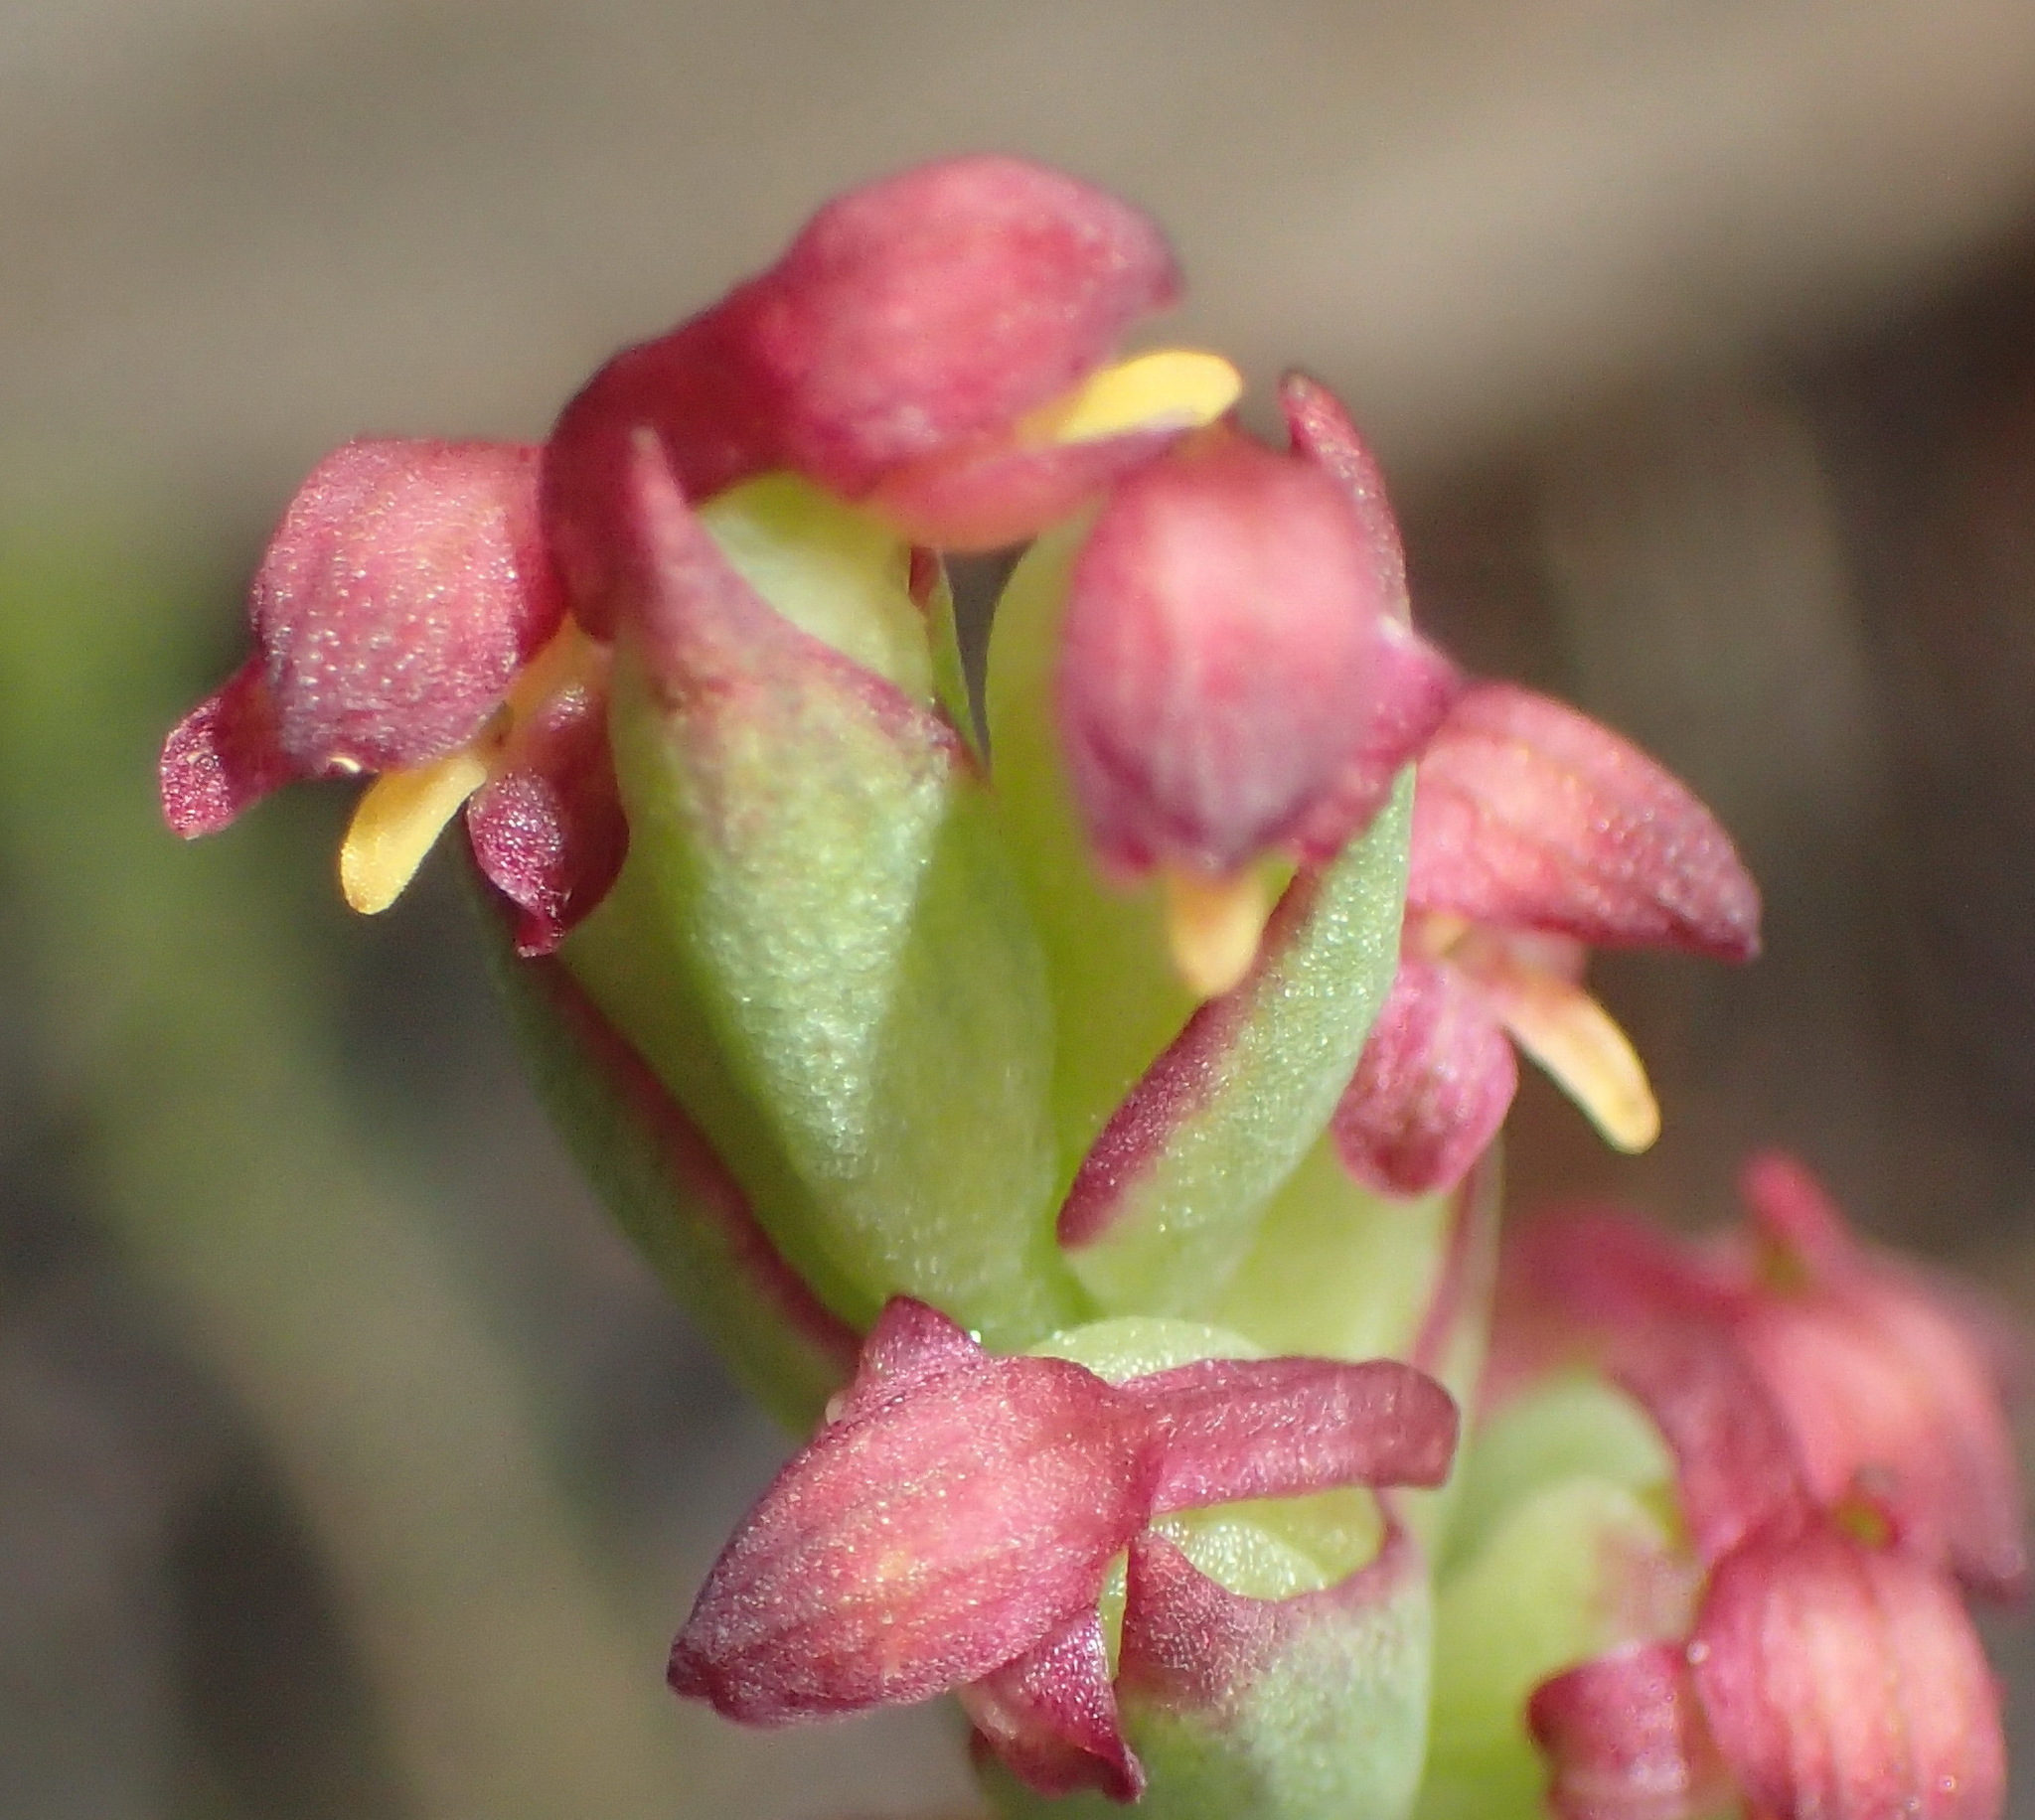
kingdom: Plantae
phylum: Tracheophyta
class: Liliopsida
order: Asparagales
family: Orchidaceae
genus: Disa
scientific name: Disa bracteata
